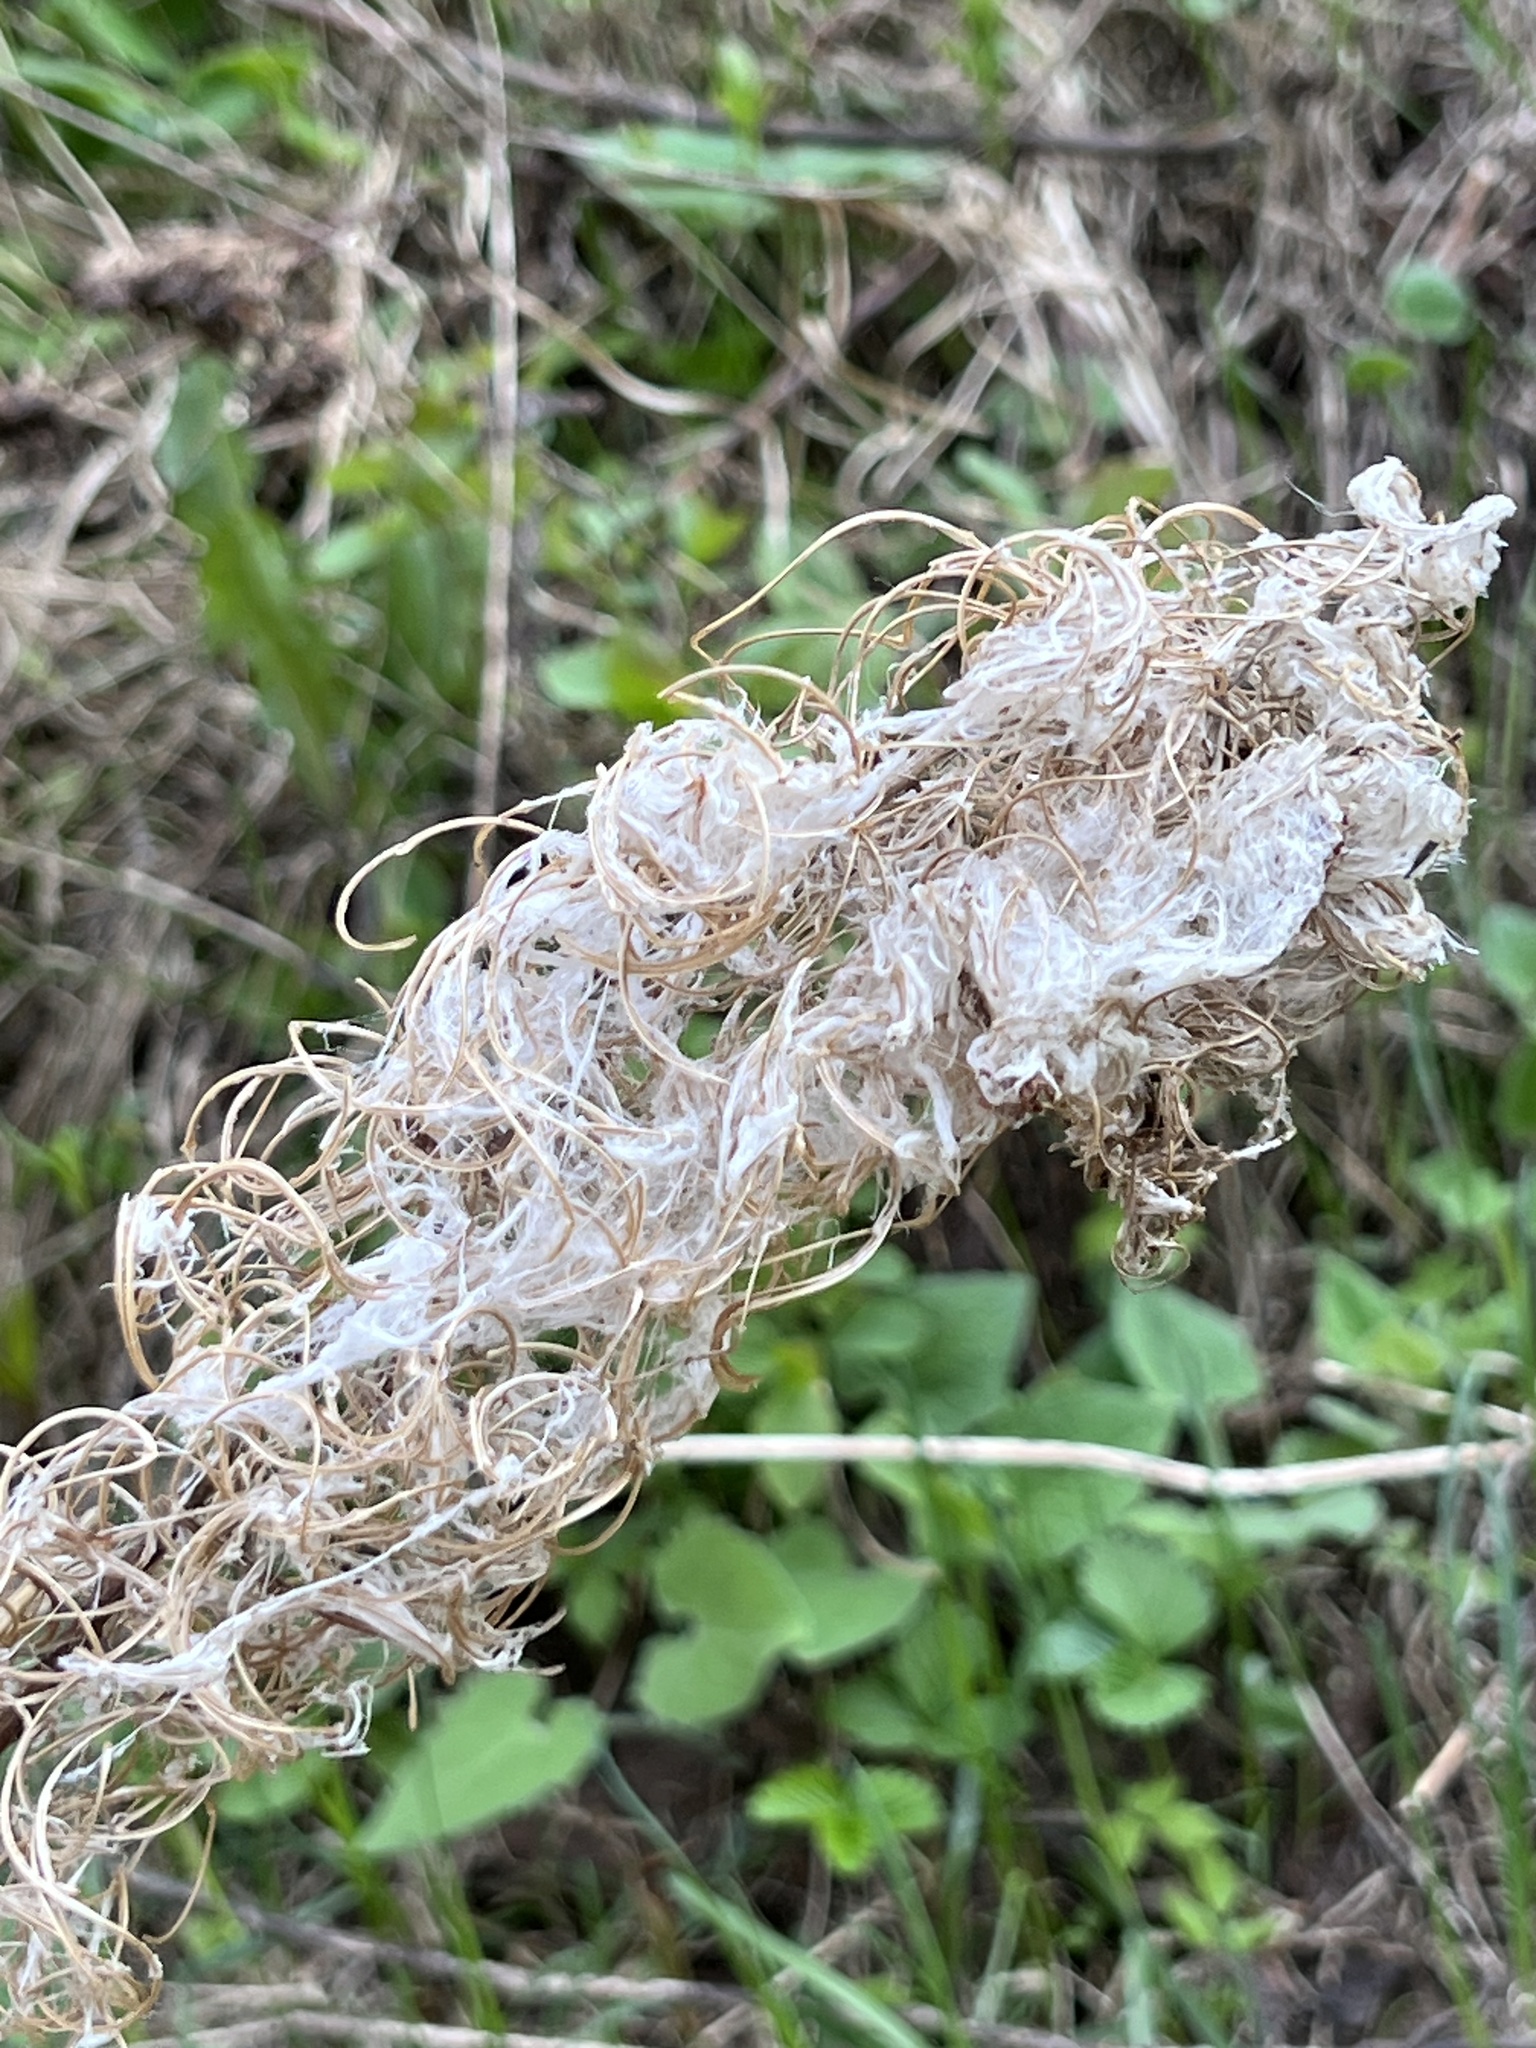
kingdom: Plantae
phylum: Tracheophyta
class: Magnoliopsida
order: Myrtales
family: Onagraceae
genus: Chamaenerion
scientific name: Chamaenerion angustifolium
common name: Fireweed
